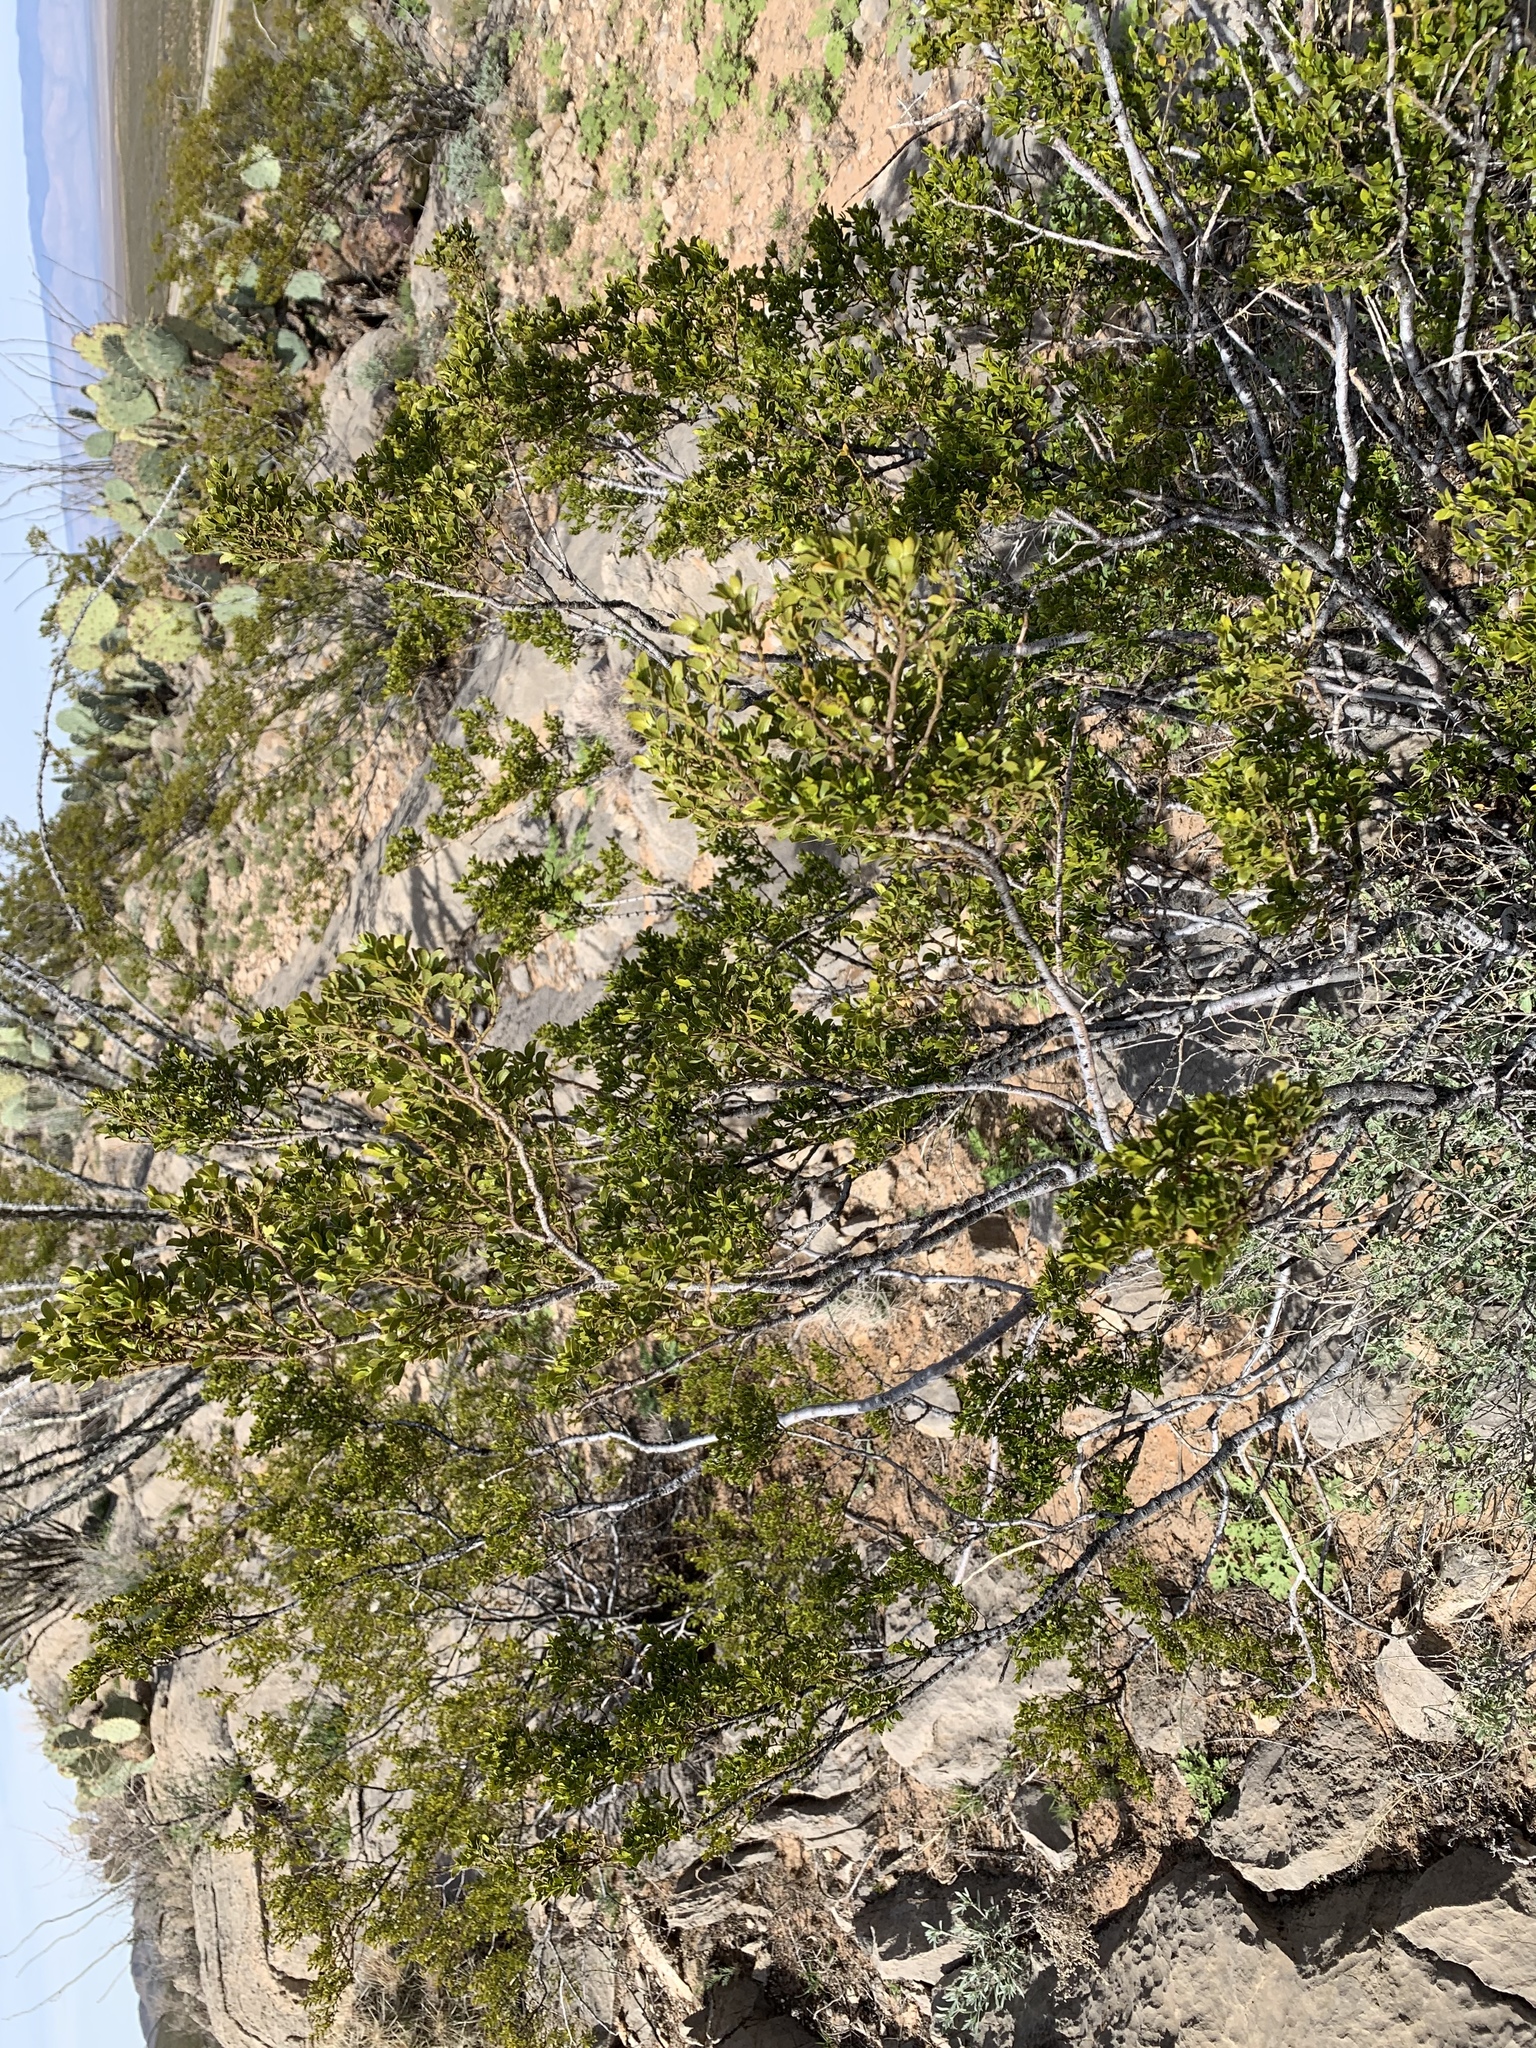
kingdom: Plantae
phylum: Tracheophyta
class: Magnoliopsida
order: Zygophyllales
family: Zygophyllaceae
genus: Larrea
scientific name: Larrea tridentata
